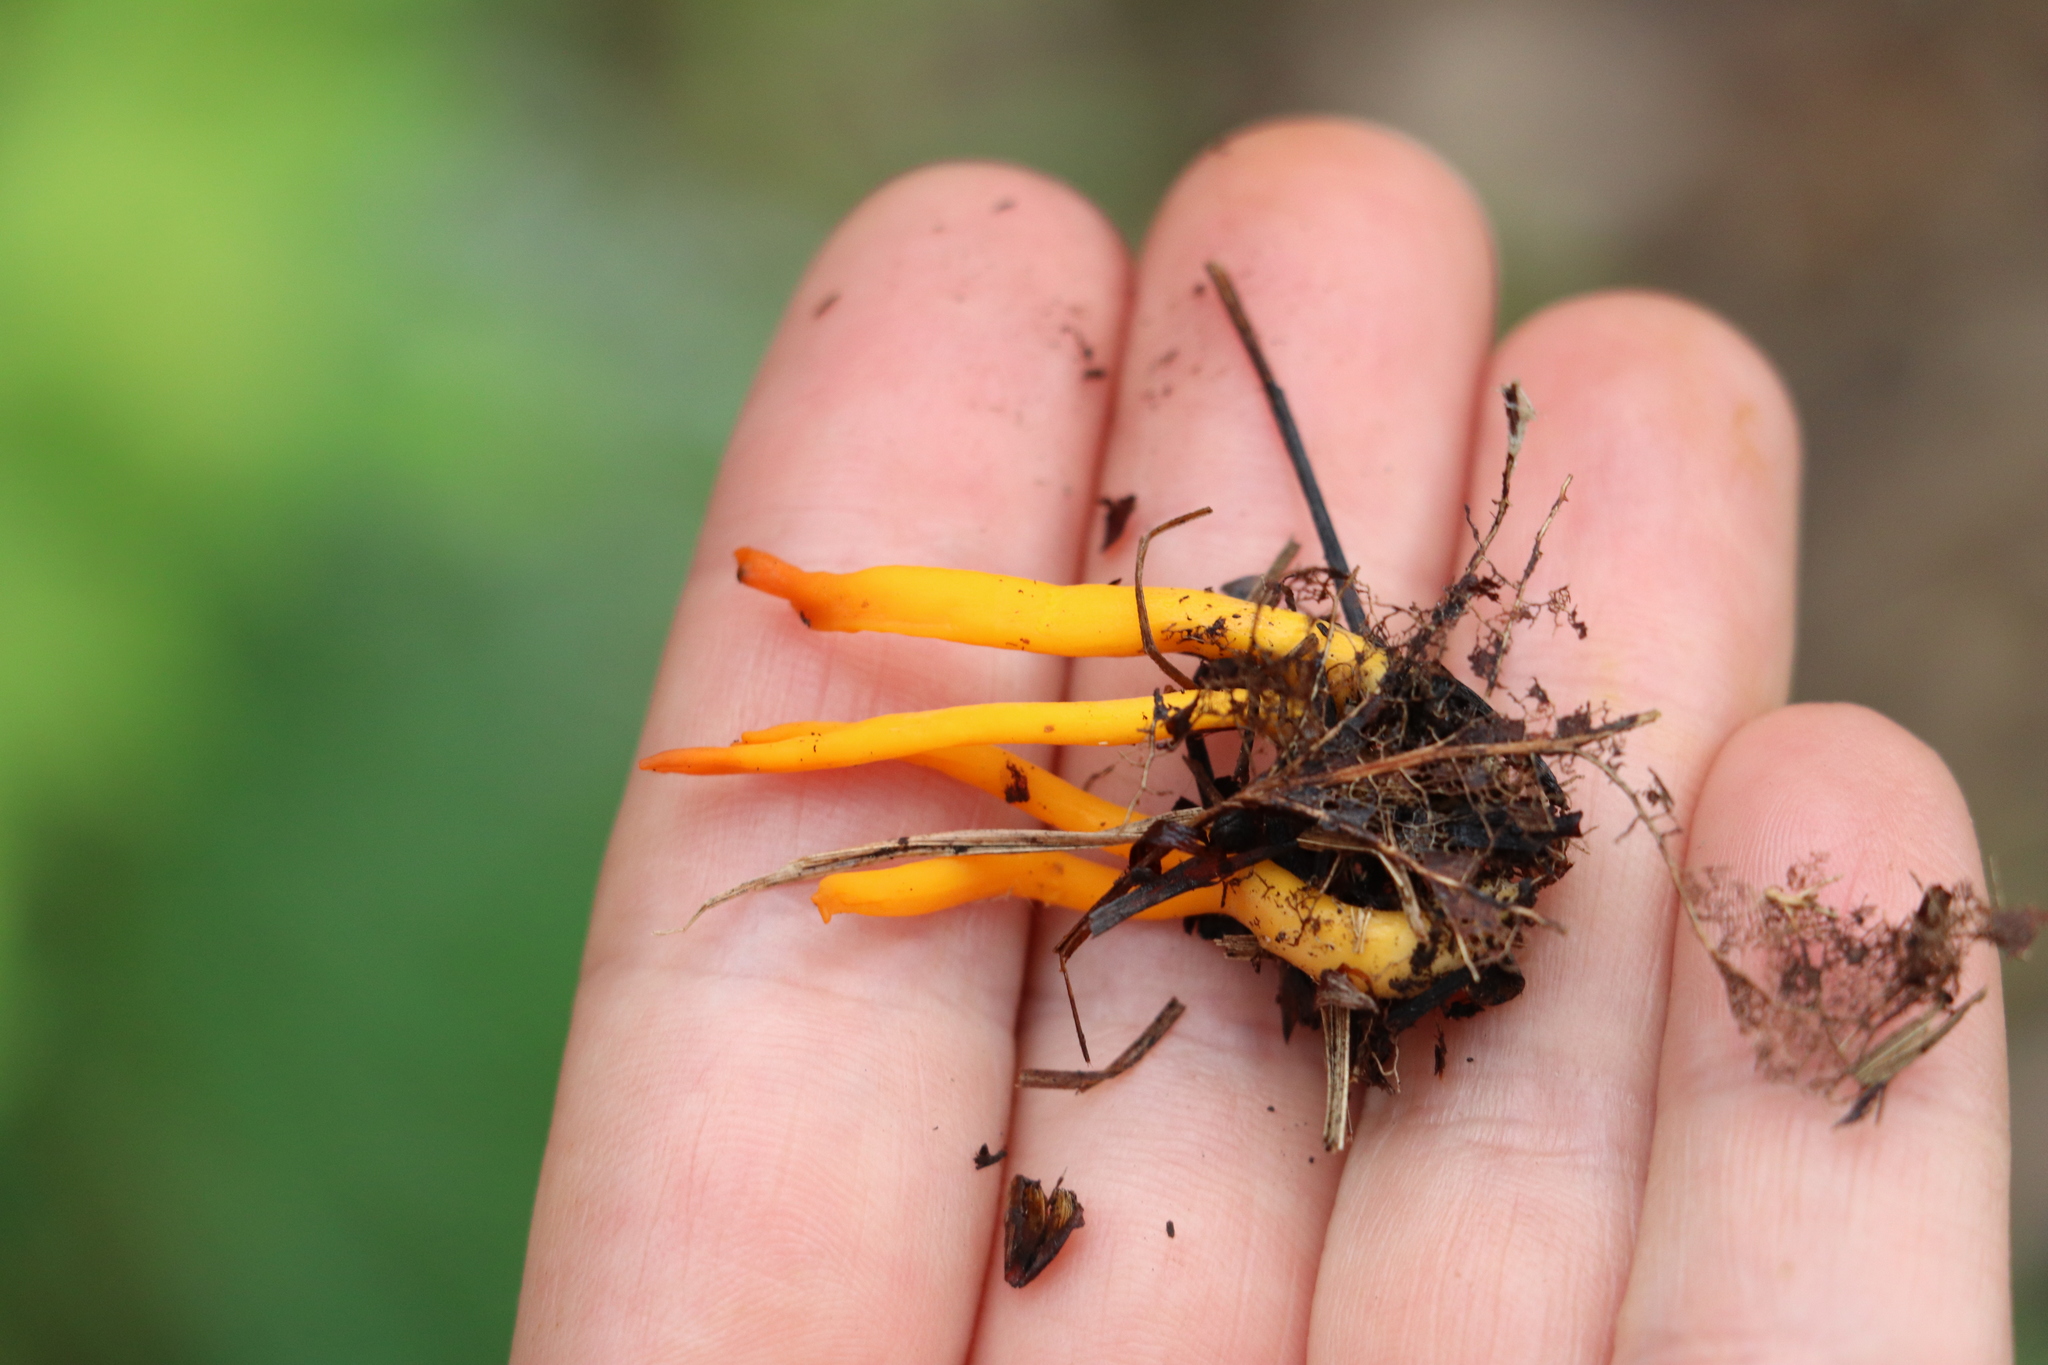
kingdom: Fungi
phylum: Basidiomycota
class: Dacrymycetes
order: Dacrymycetales
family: Dacrymycetaceae
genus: Calocera
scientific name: Calocera viscosa
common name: Yellow stagshorn
